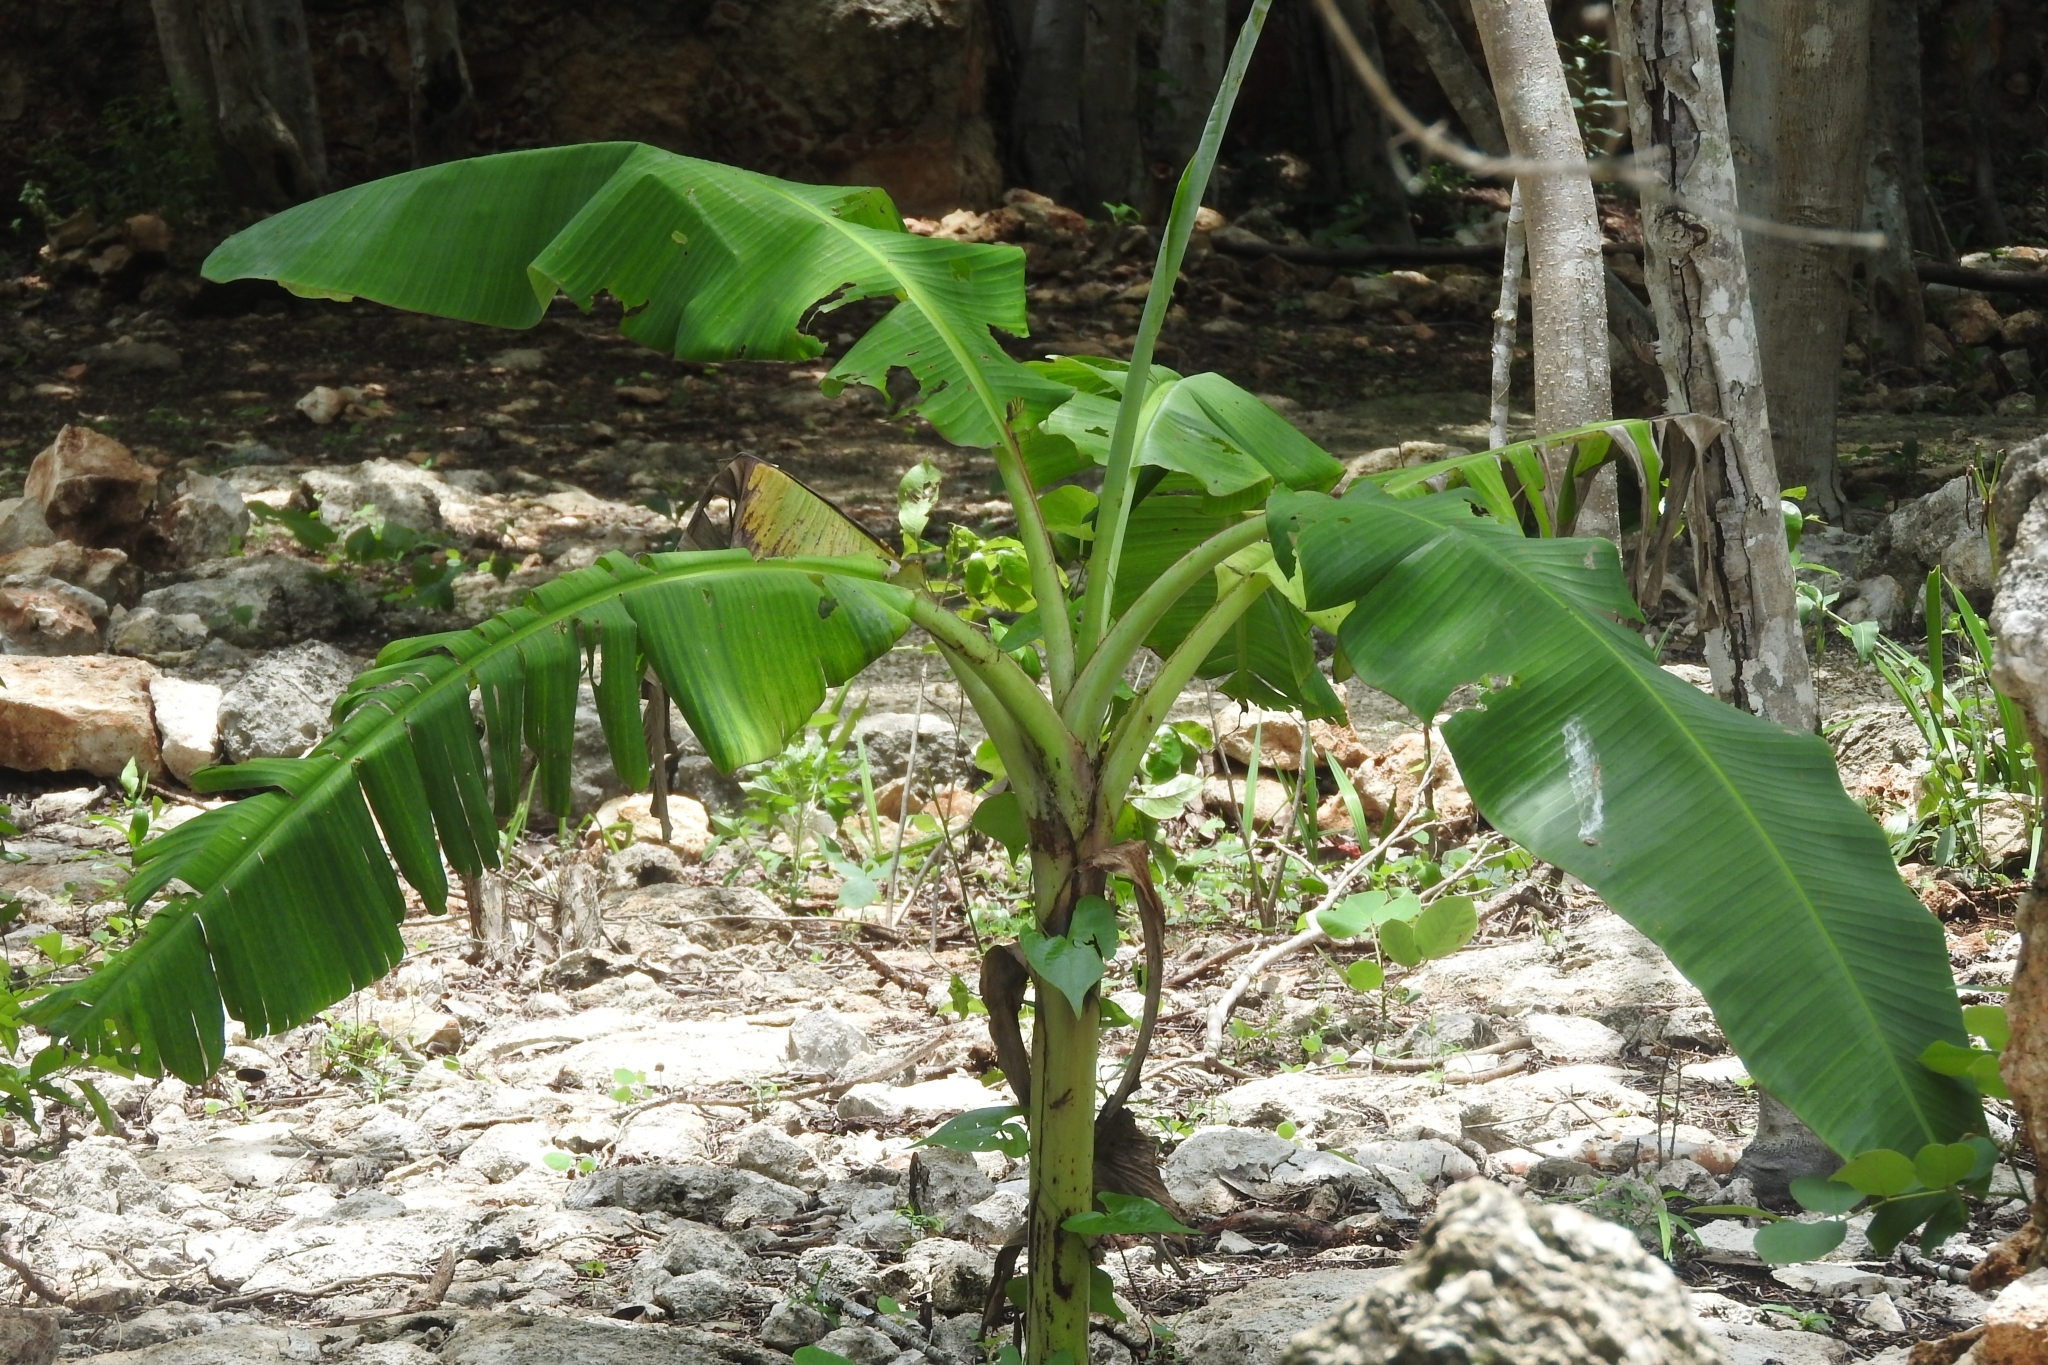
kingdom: Plantae
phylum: Tracheophyta
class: Liliopsida
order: Zingiberales
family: Musaceae
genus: Musa
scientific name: Musa paradisiaca
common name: French plantain
